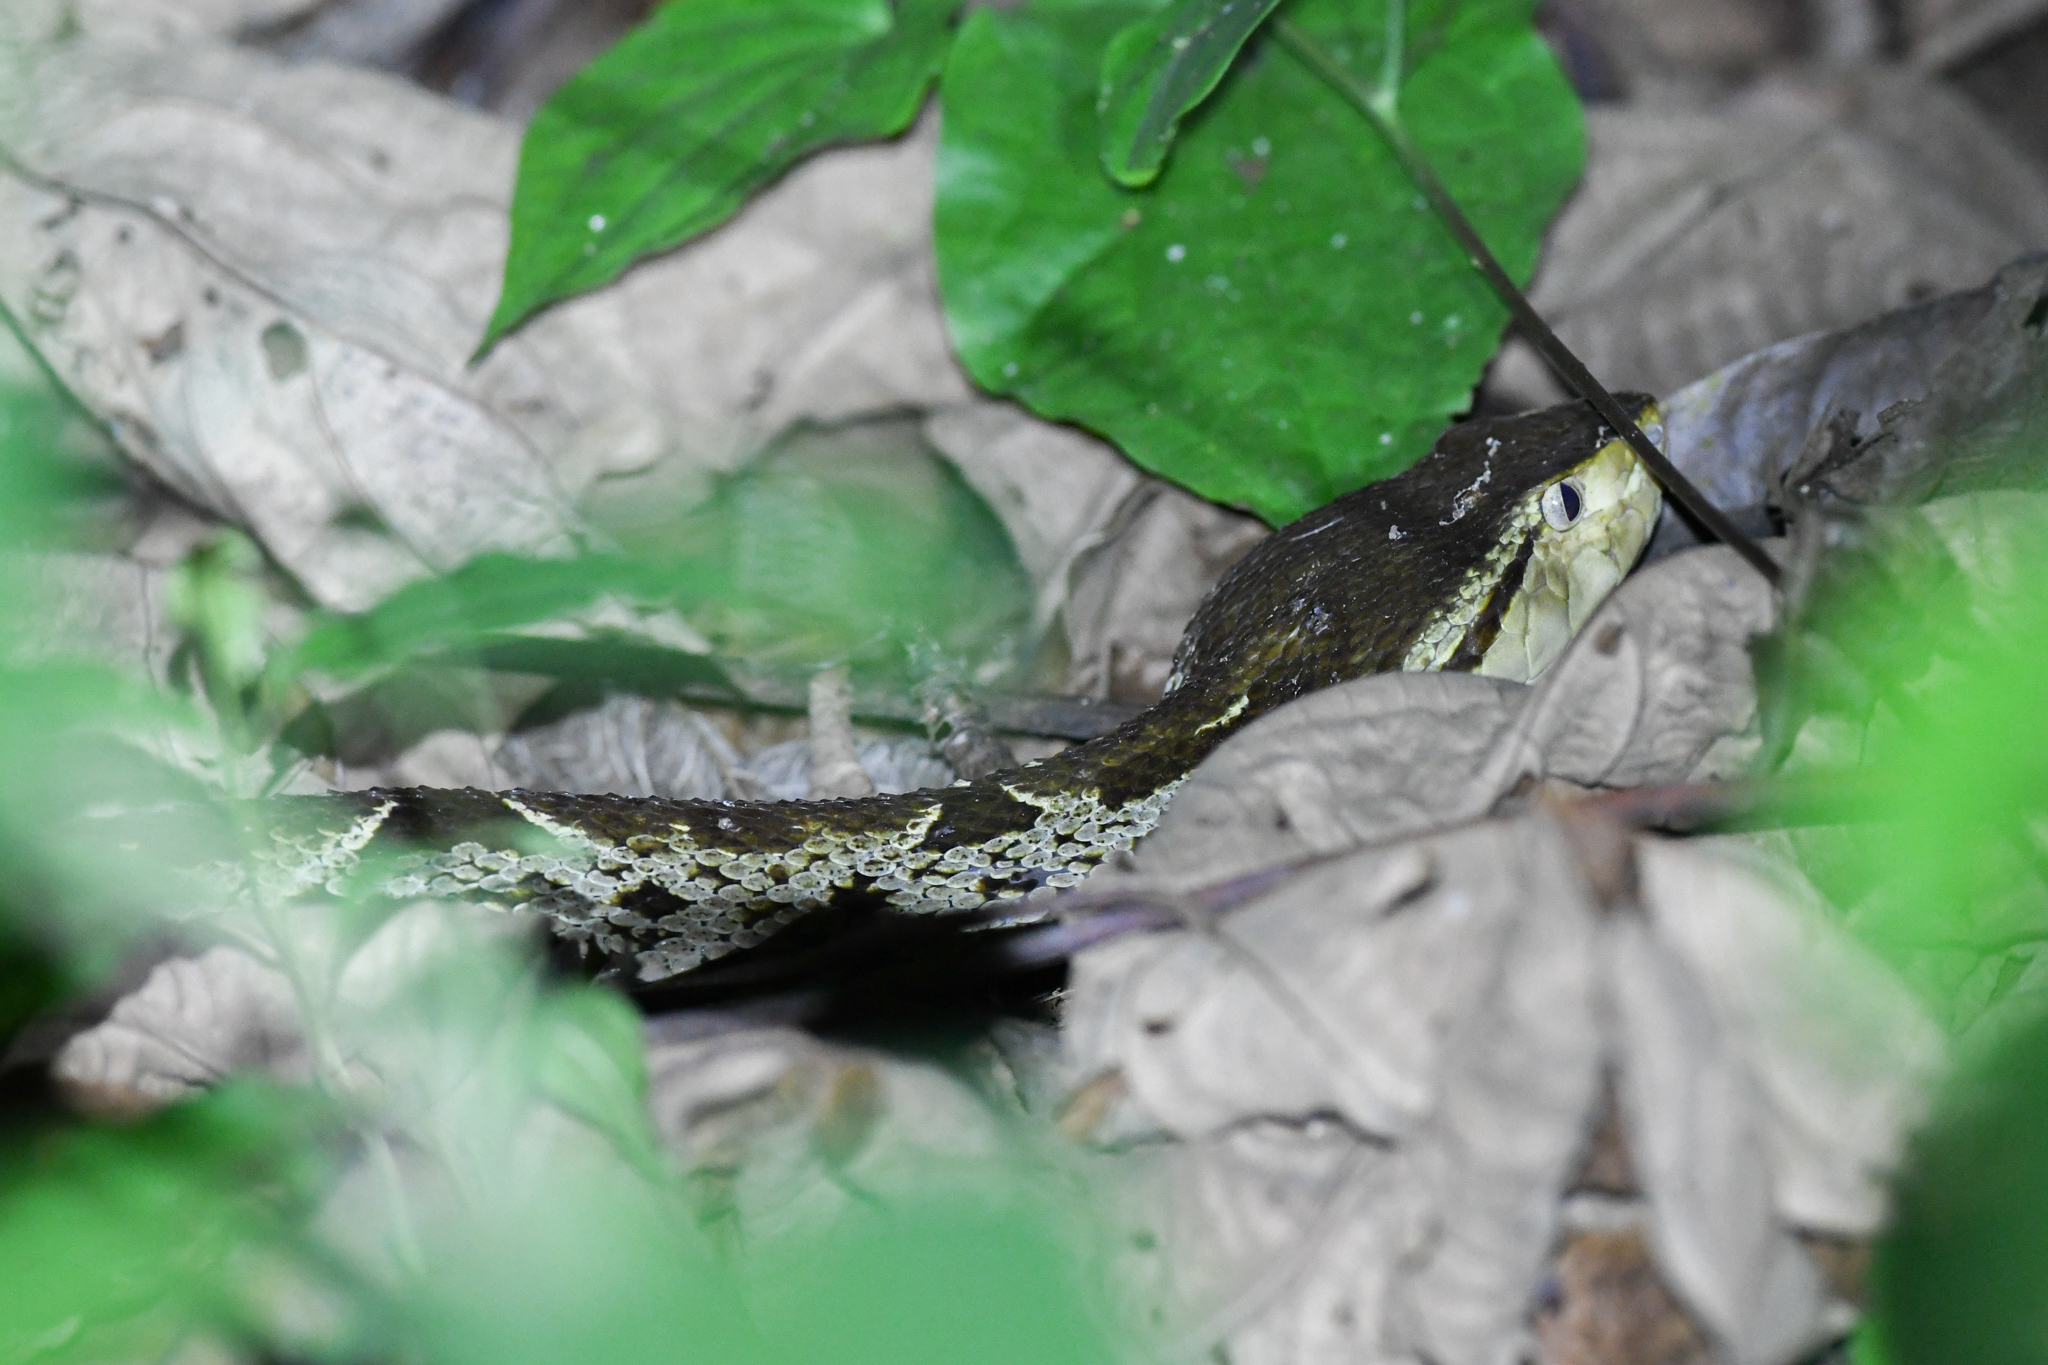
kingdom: Animalia
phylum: Chordata
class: Squamata
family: Viperidae
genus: Bothrops
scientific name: Bothrops asper
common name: Terciopelo
